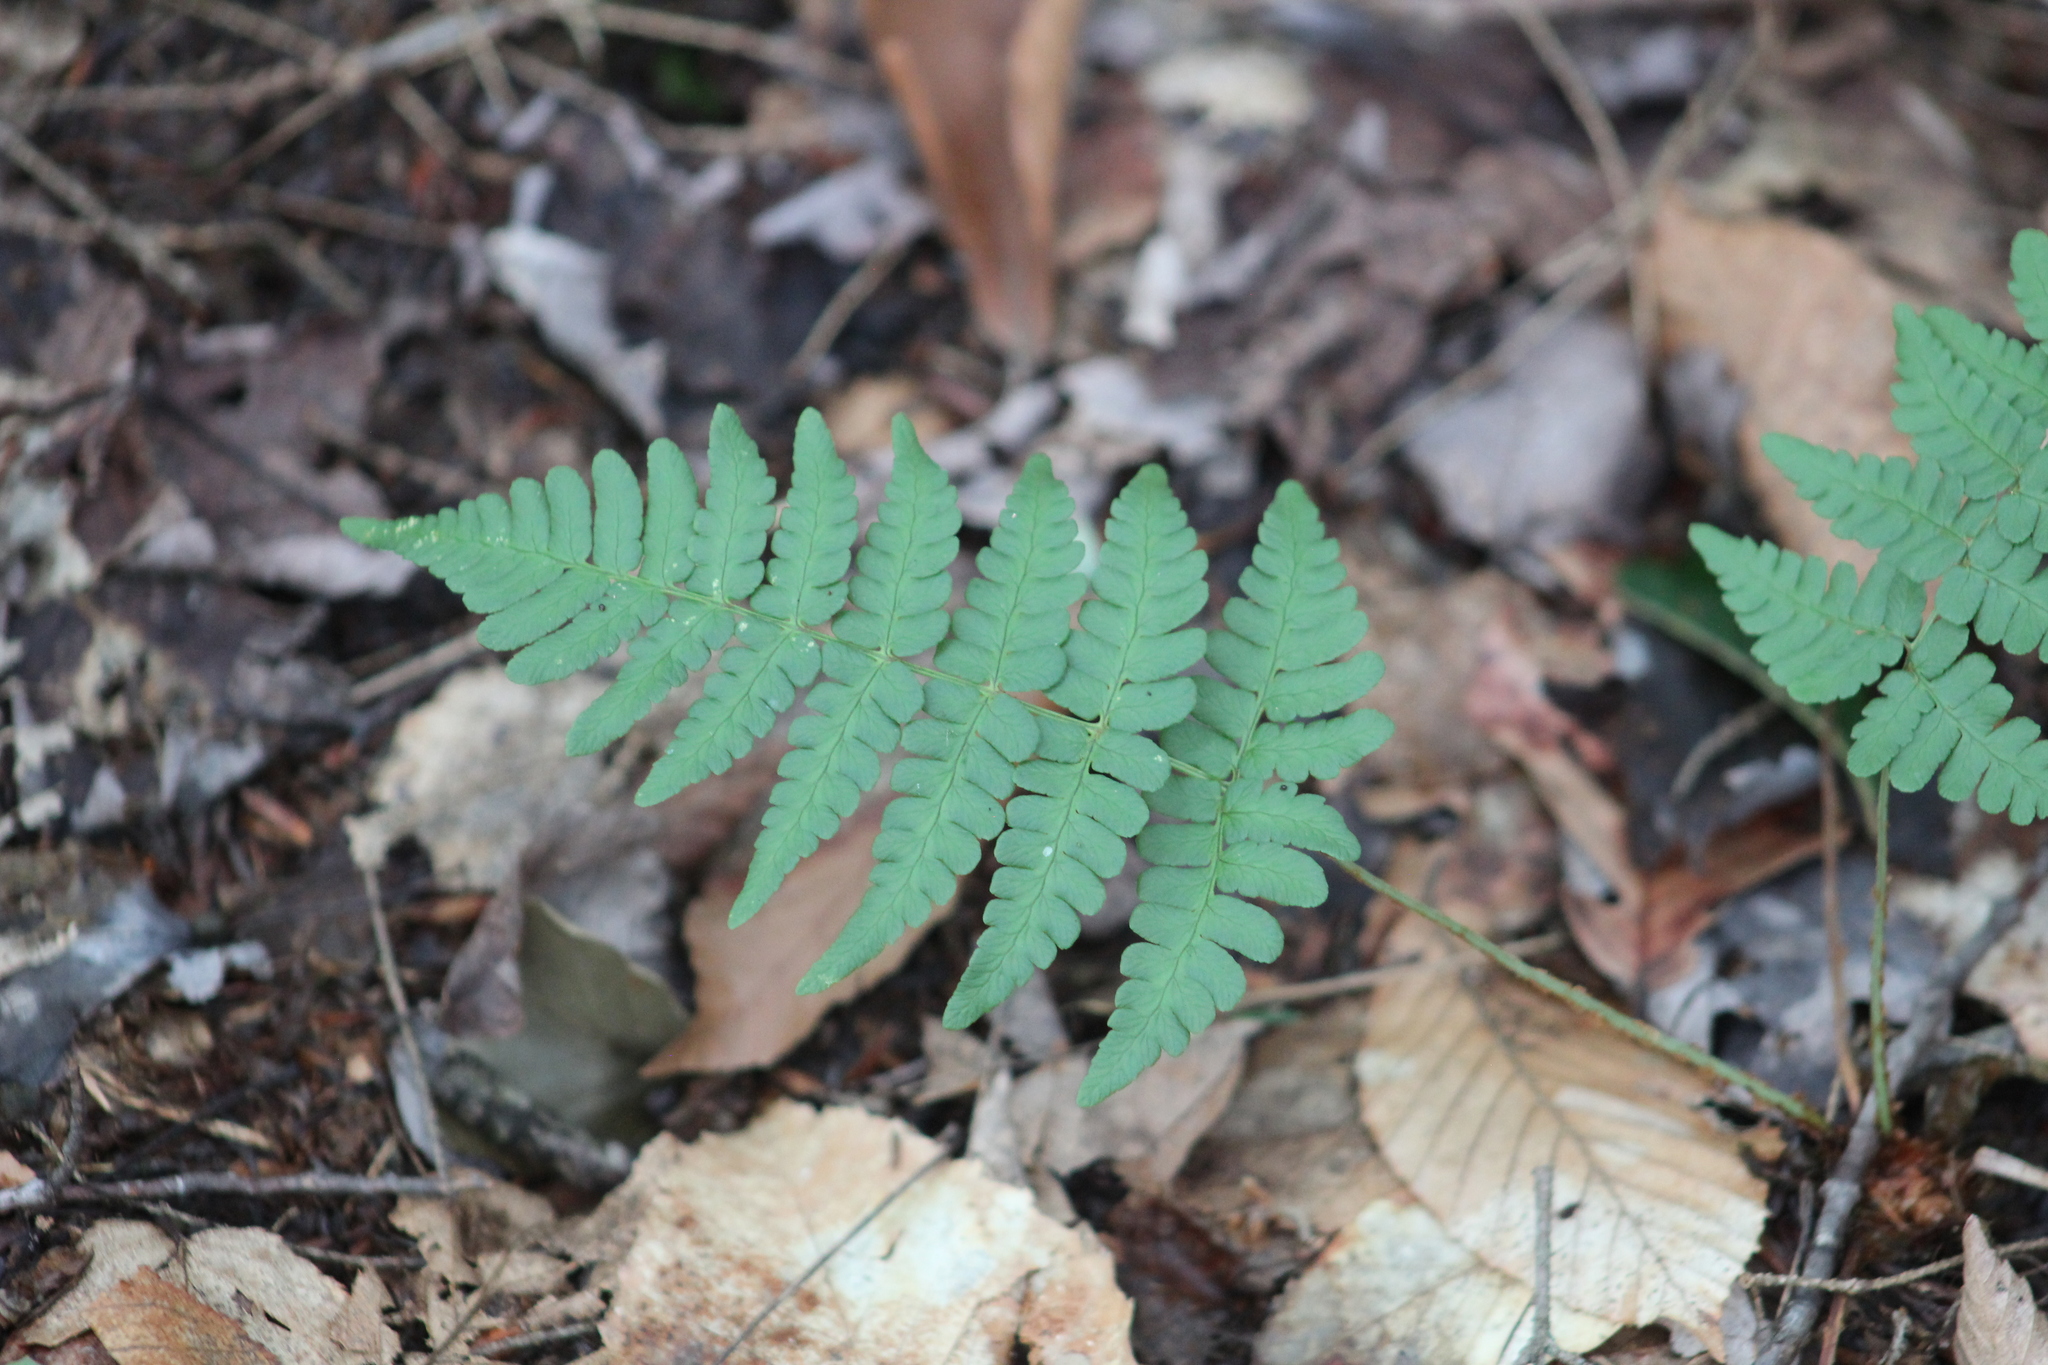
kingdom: Plantae
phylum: Tracheophyta
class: Polypodiopsida
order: Polypodiales
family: Dryopteridaceae
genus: Dryopteris
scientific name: Dryopteris marginalis
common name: Marginal wood fern
